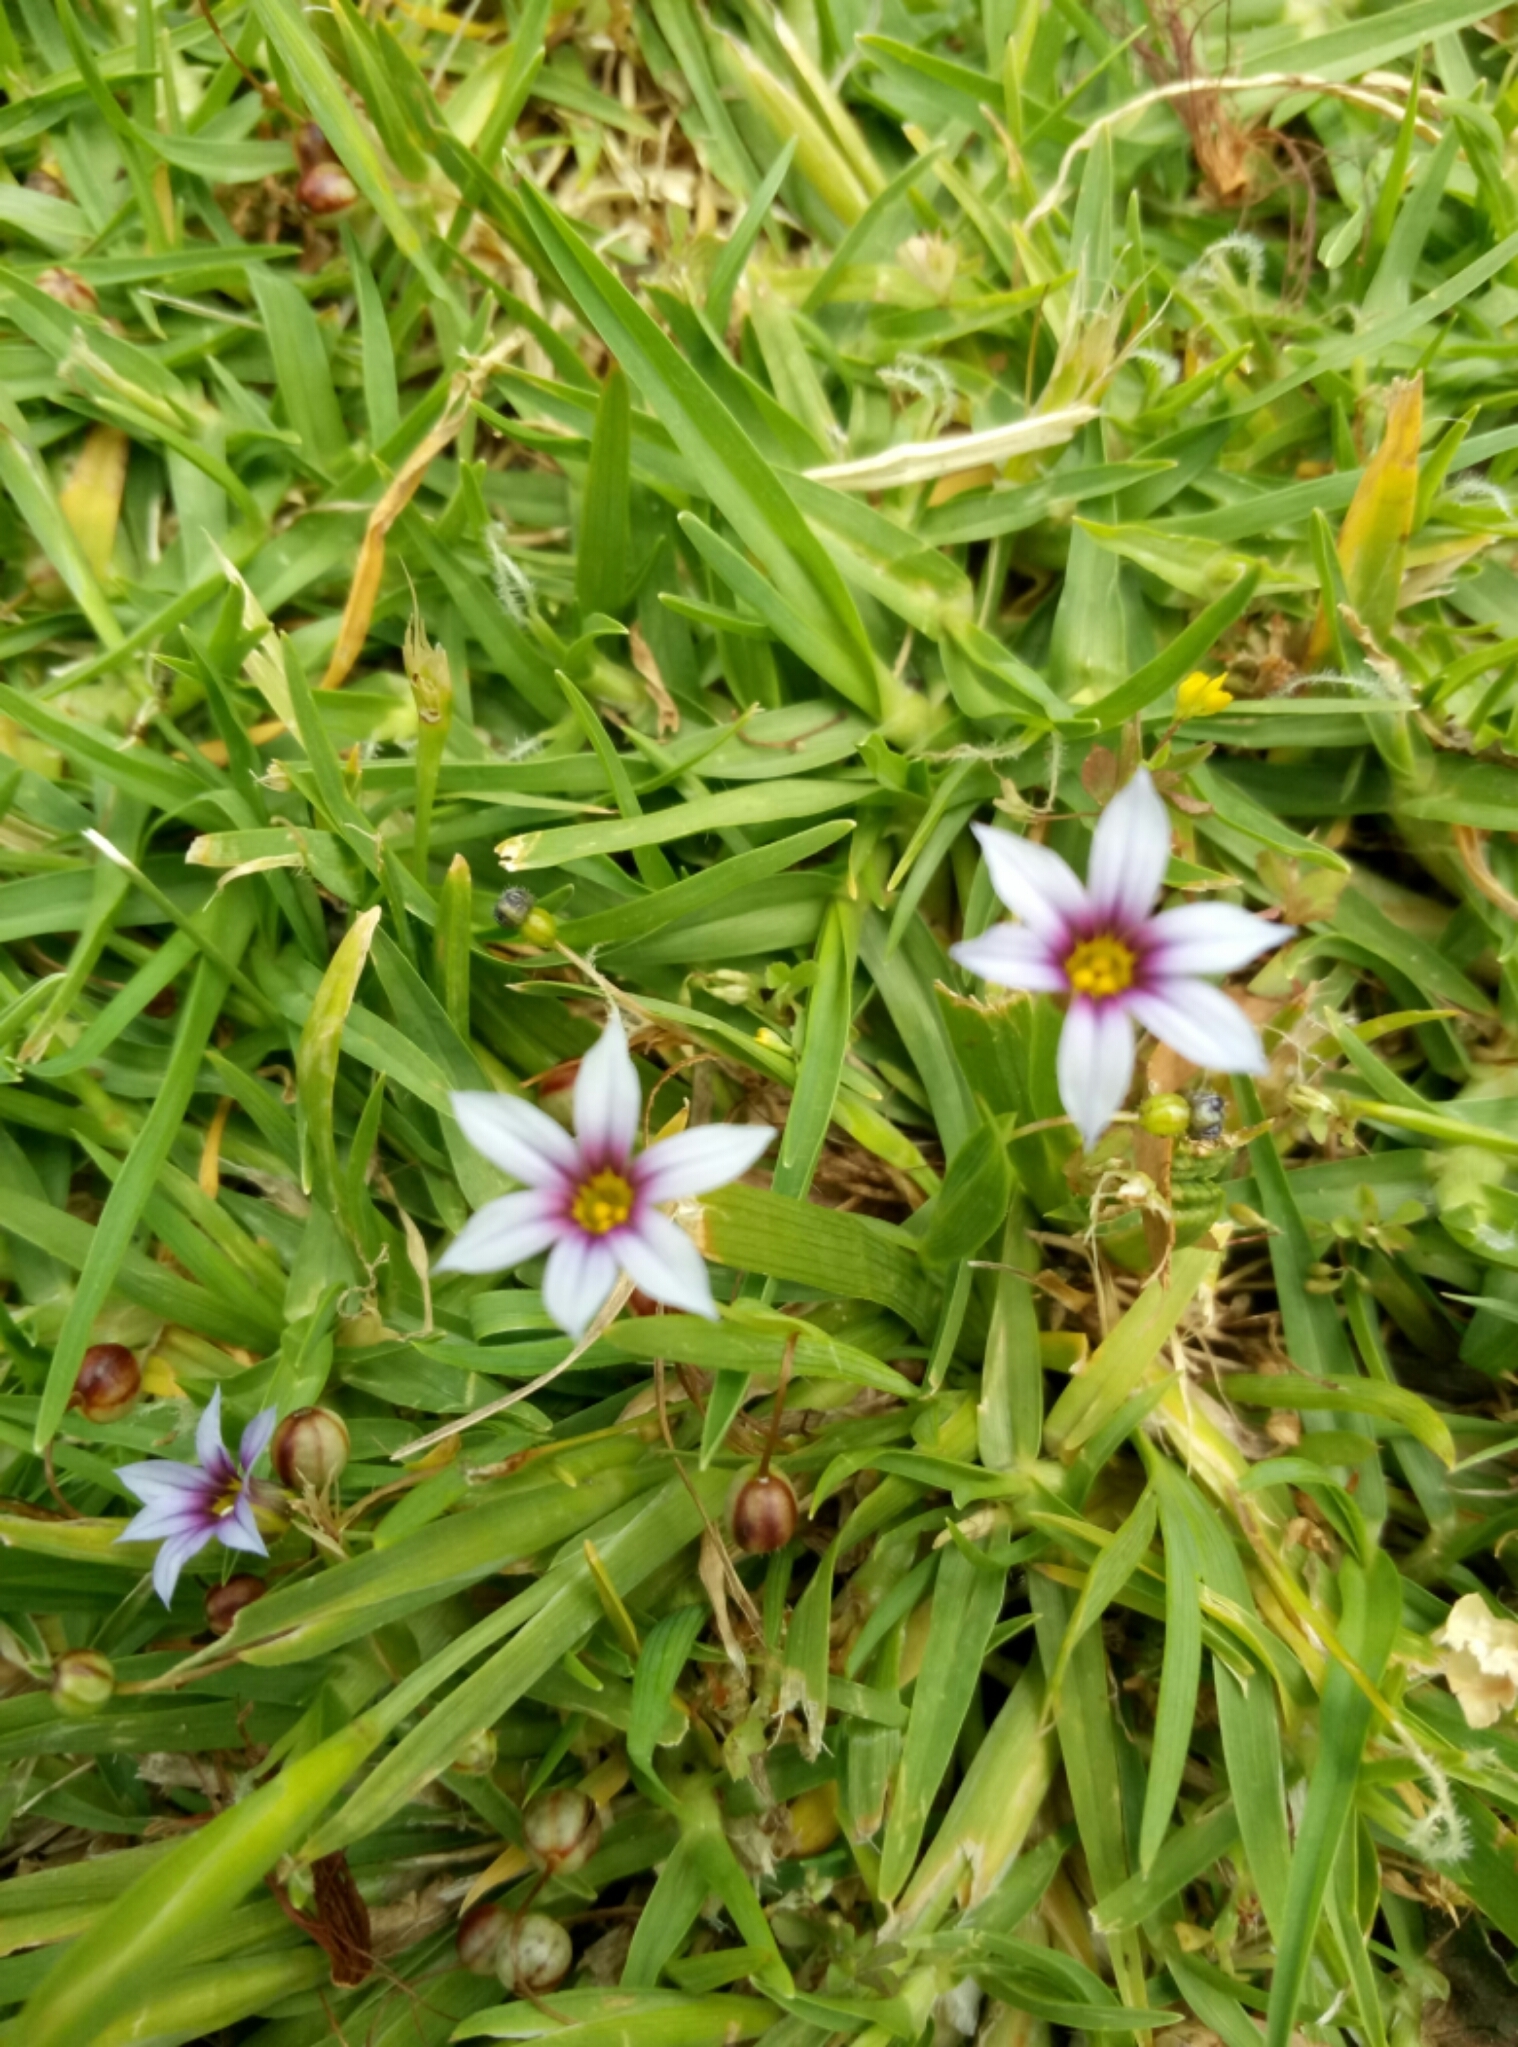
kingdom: Plantae
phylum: Tracheophyta
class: Liliopsida
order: Asparagales
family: Iridaceae
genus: Sisyrinchium
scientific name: Sisyrinchium micranthum
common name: Bermuda pigroot
